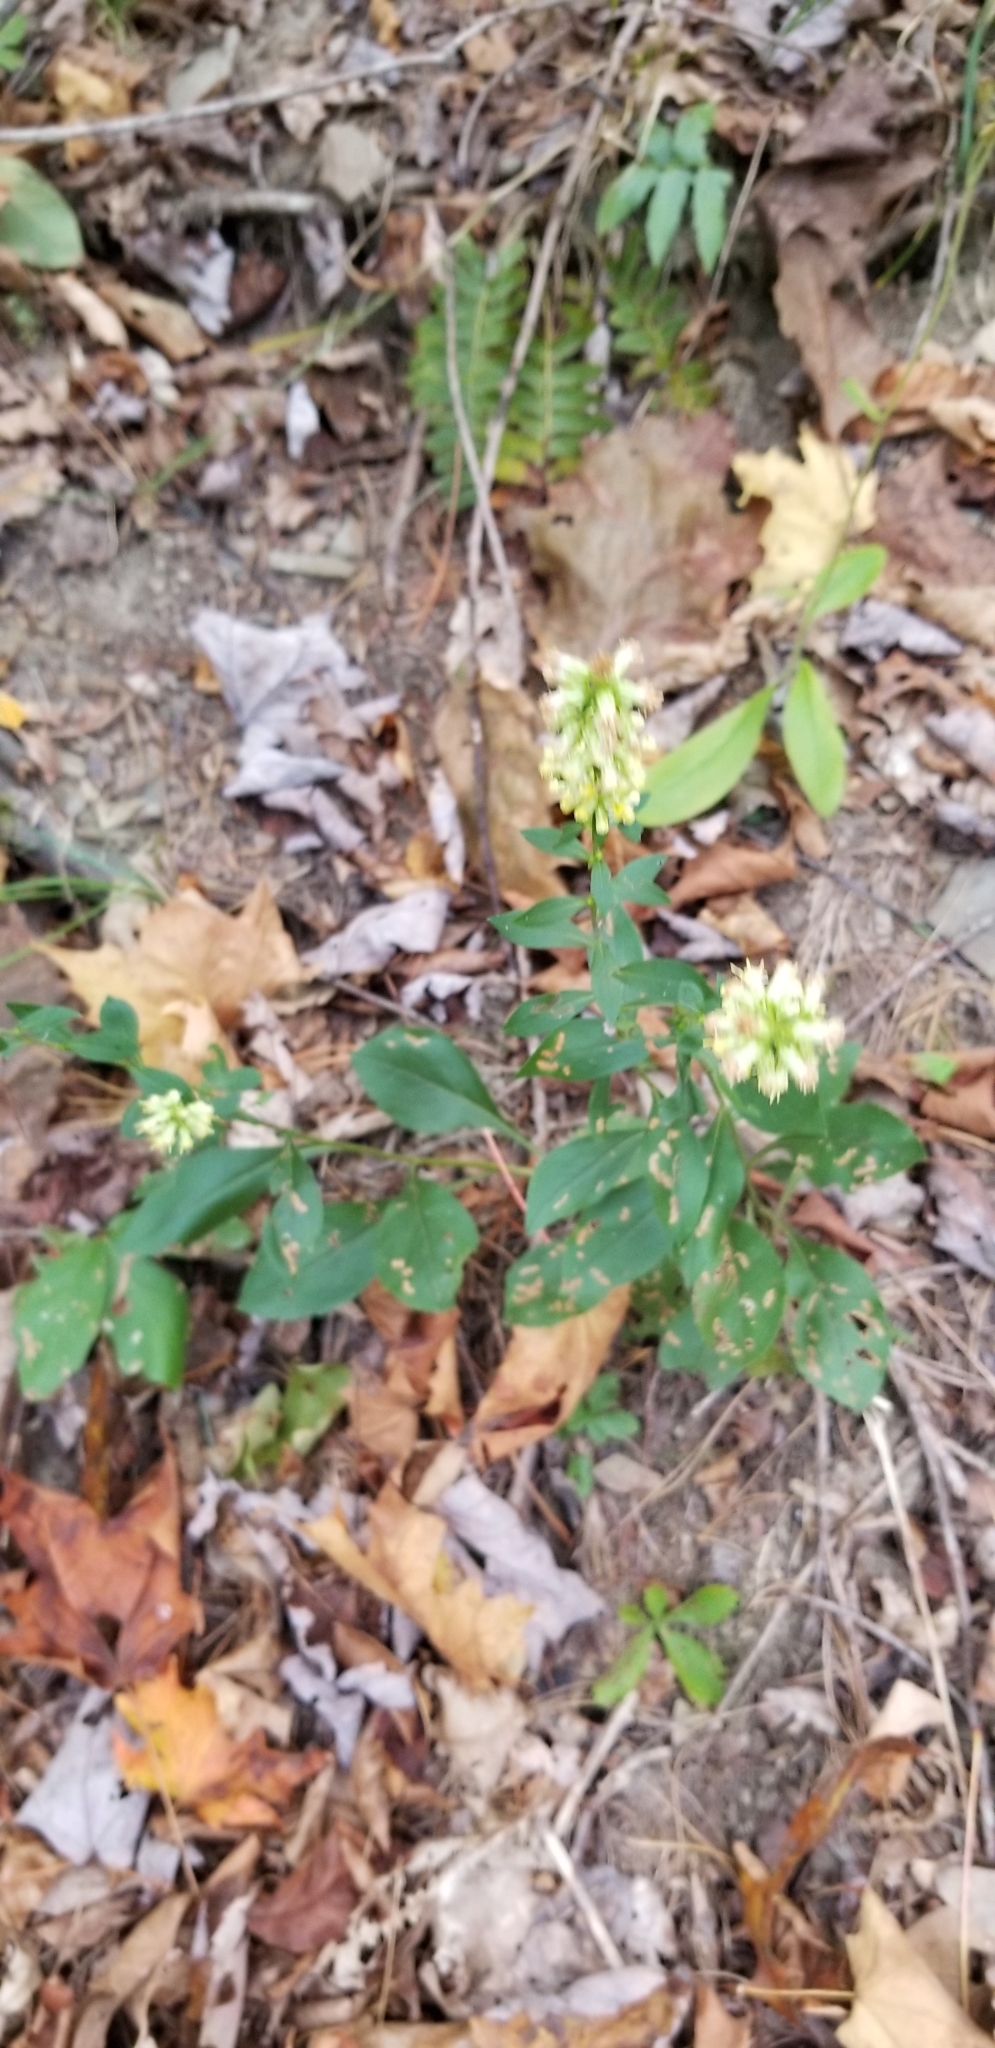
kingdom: Plantae
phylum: Tracheophyta
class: Magnoliopsida
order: Asterales
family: Asteraceae
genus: Solidago
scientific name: Solidago bicolor
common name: Silverrod
